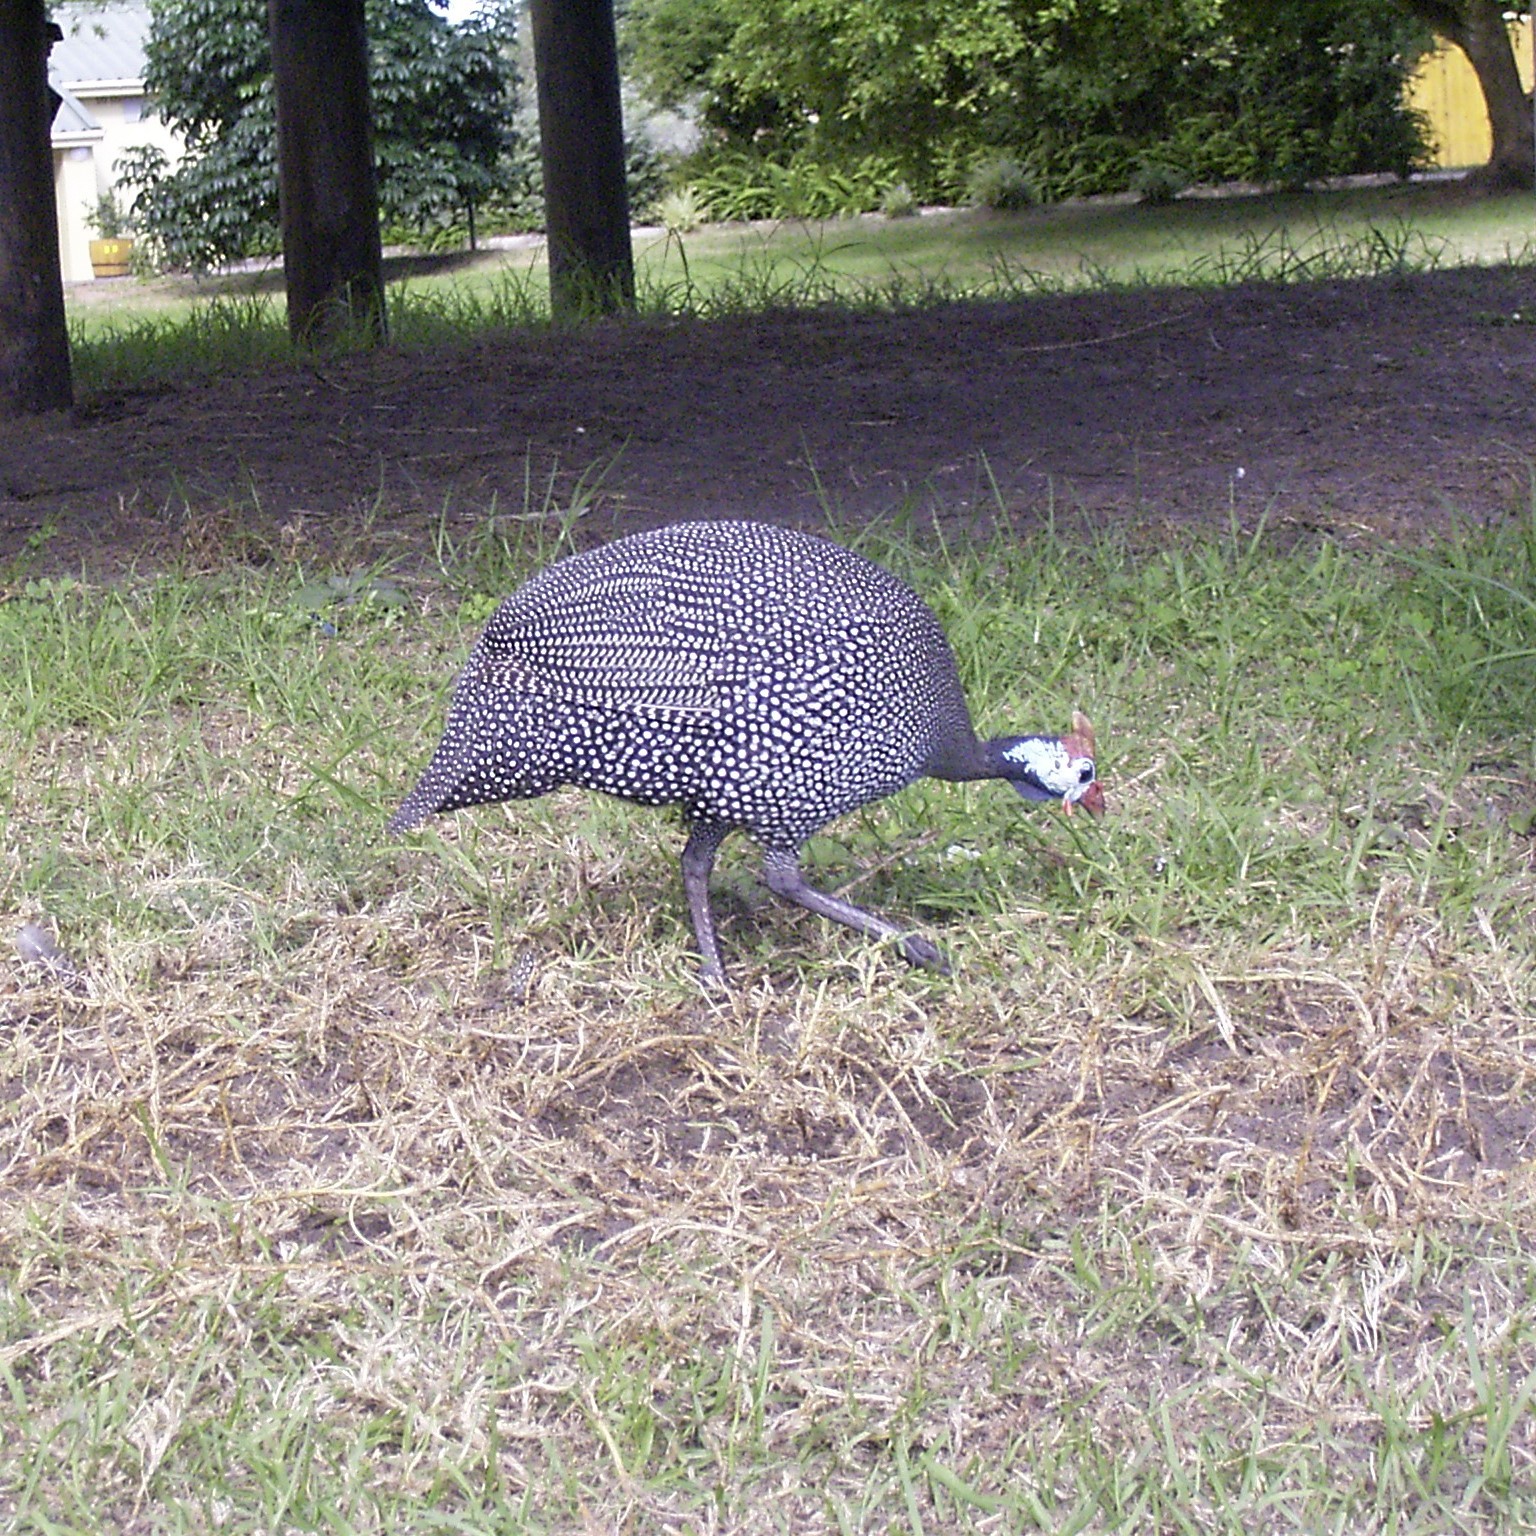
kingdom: Animalia
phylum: Chordata
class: Aves
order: Galliformes
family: Numididae
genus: Numida
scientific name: Numida meleagris
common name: Helmeted guineafowl
